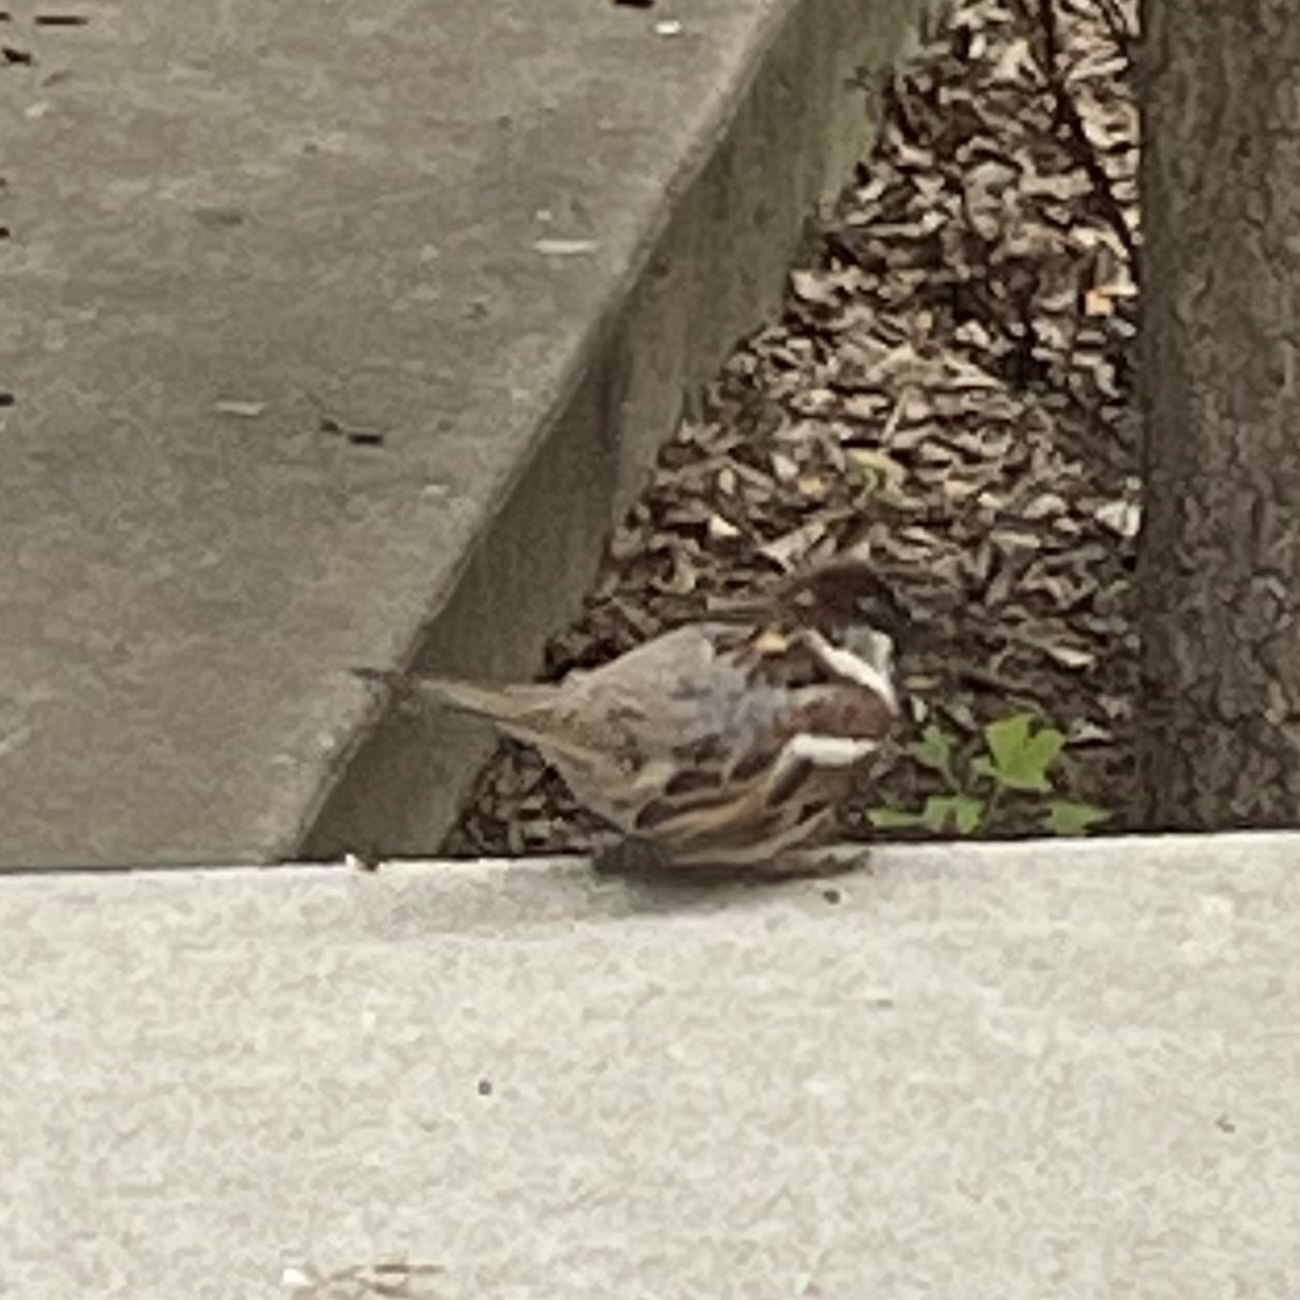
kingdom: Animalia
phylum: Chordata
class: Aves
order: Passeriformes
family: Passeridae
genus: Passer
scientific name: Passer domesticus
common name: House sparrow
